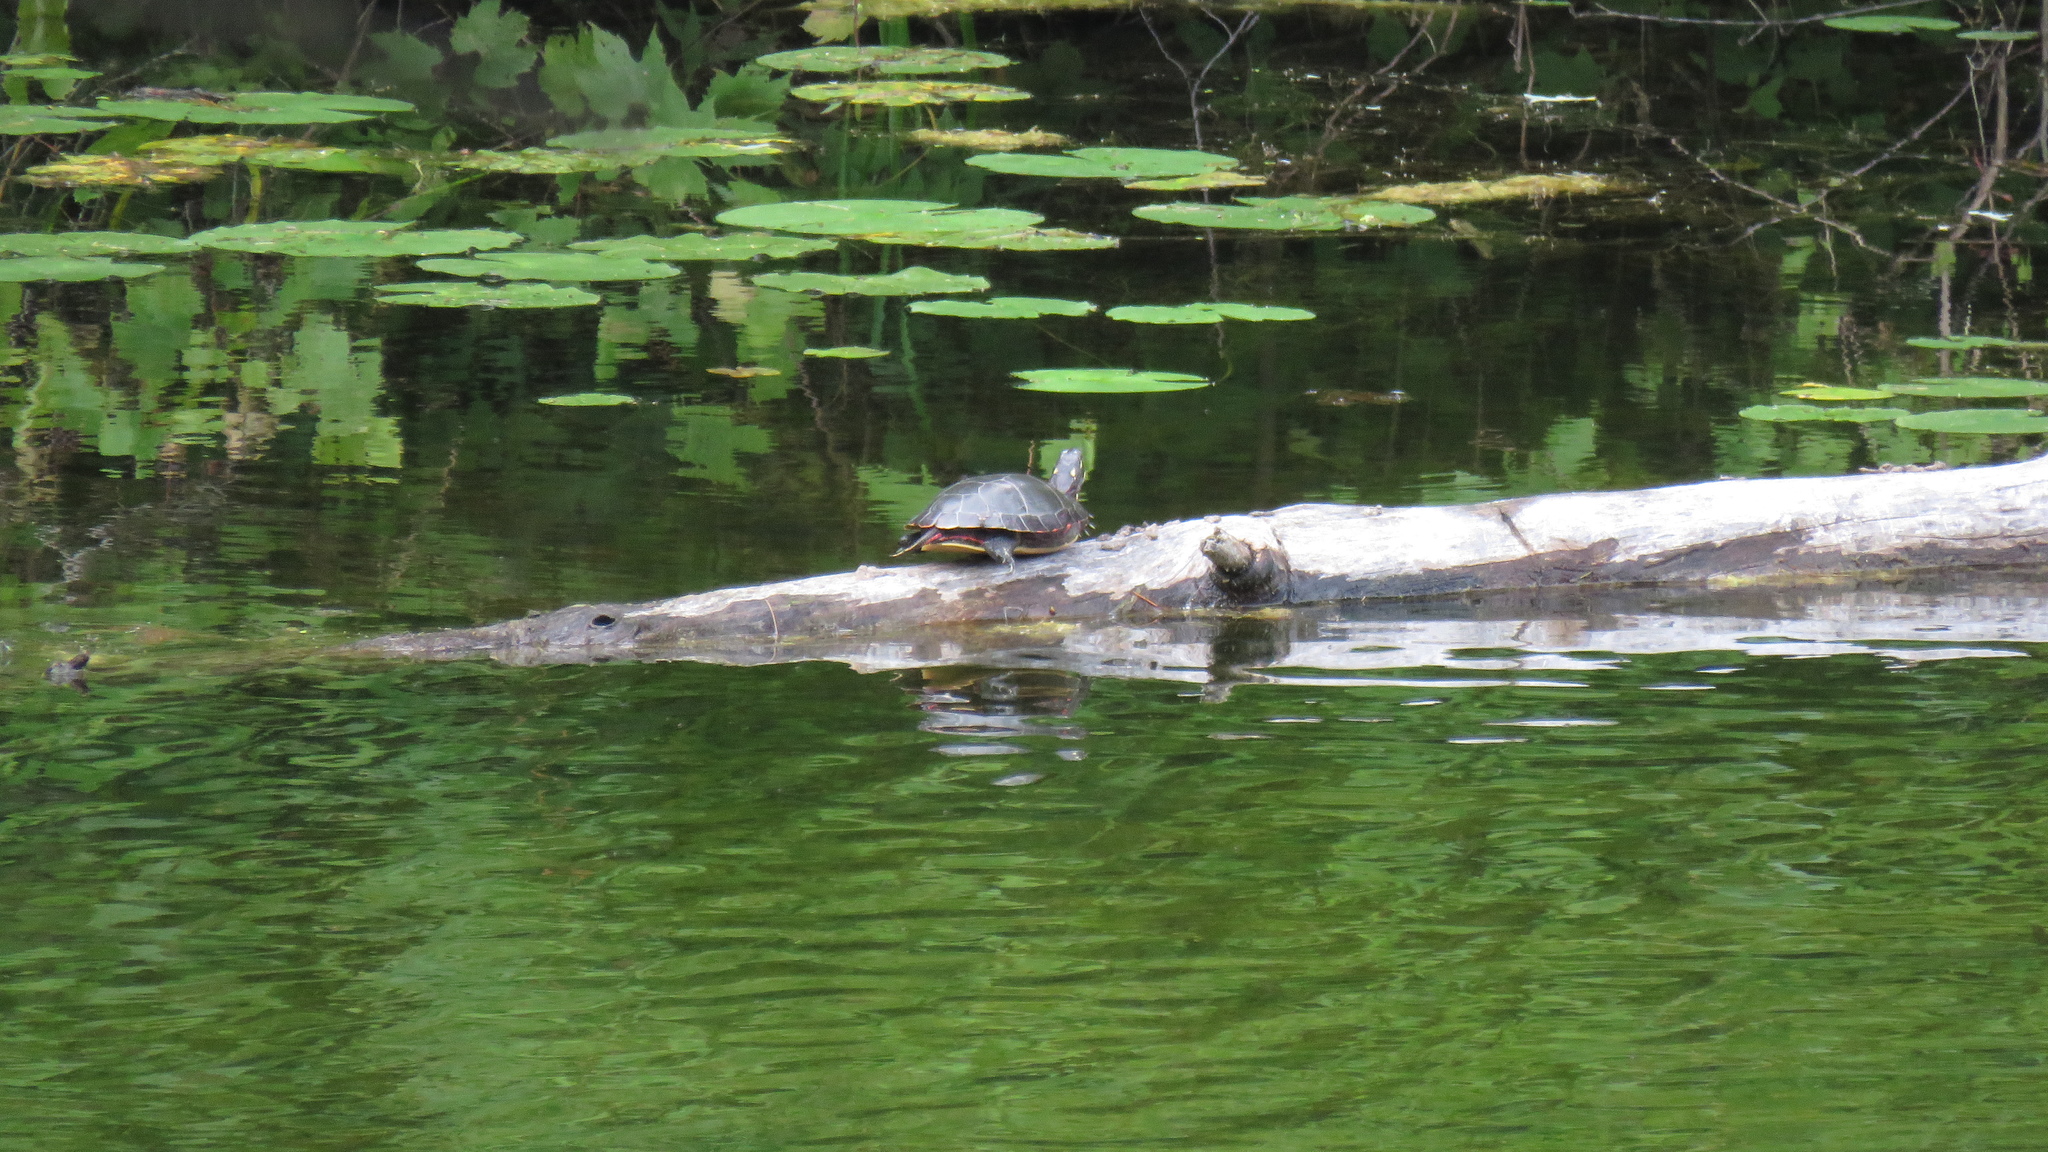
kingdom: Animalia
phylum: Chordata
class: Testudines
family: Emydidae
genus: Chrysemys
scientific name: Chrysemys picta
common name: Painted turtle
